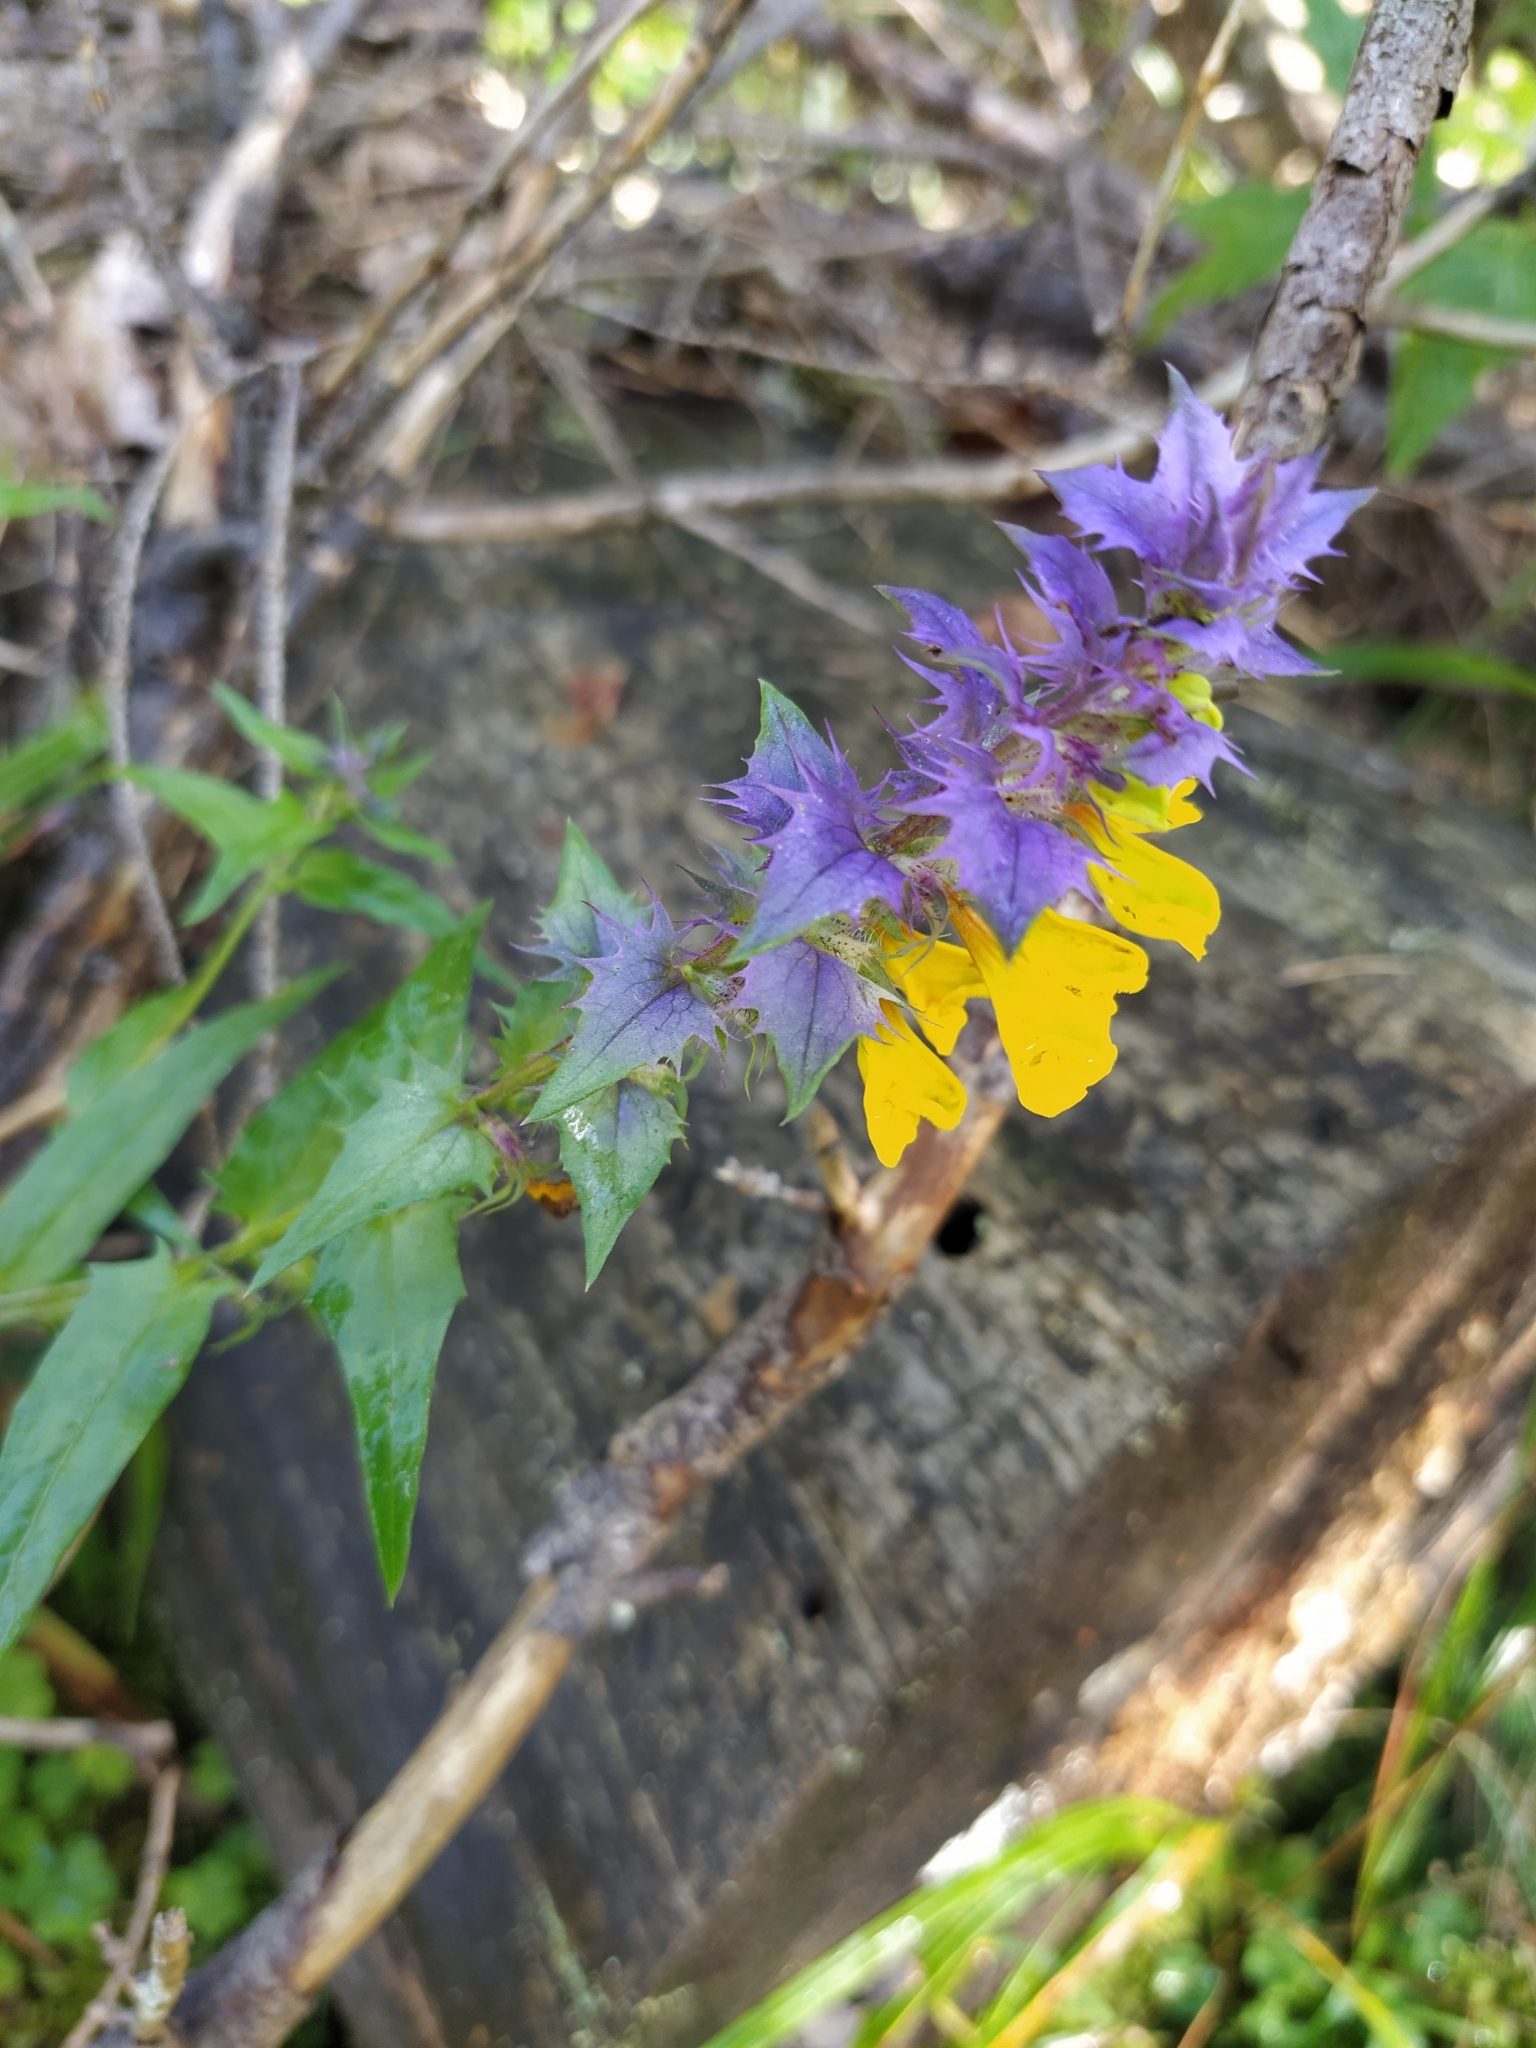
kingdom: Plantae
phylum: Tracheophyta
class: Magnoliopsida
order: Lamiales
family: Orobanchaceae
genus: Melampyrum
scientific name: Melampyrum nemorosum
